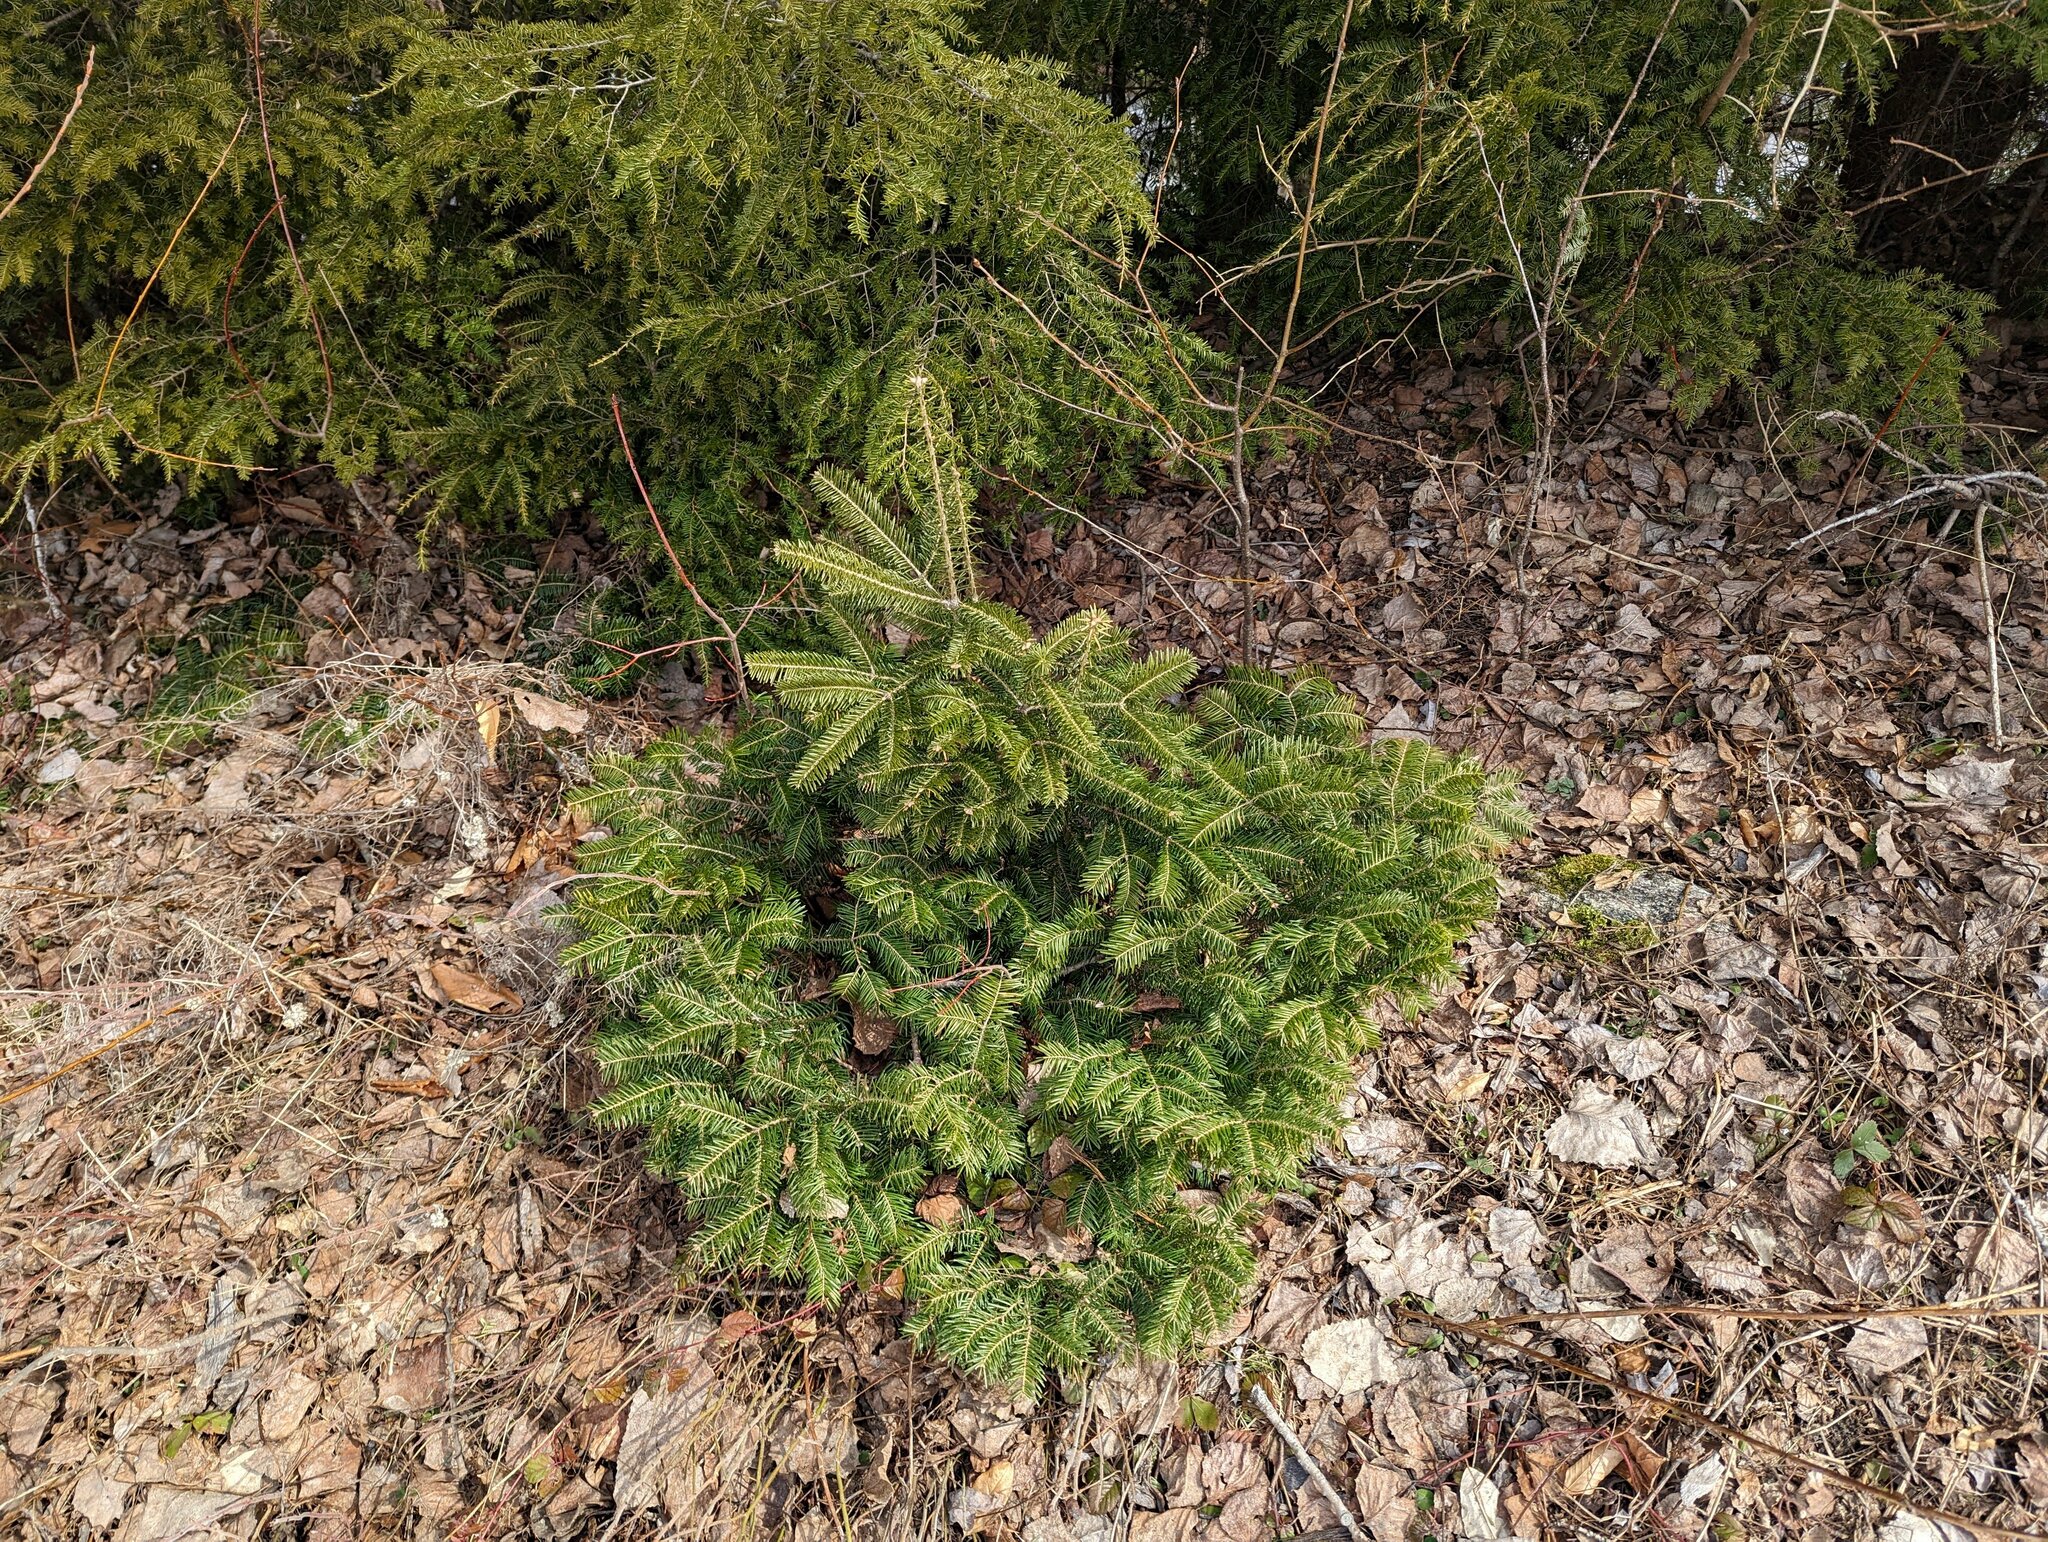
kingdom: Plantae
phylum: Tracheophyta
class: Pinopsida
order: Pinales
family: Pinaceae
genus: Abies
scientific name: Abies balsamea
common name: Balsam fir
